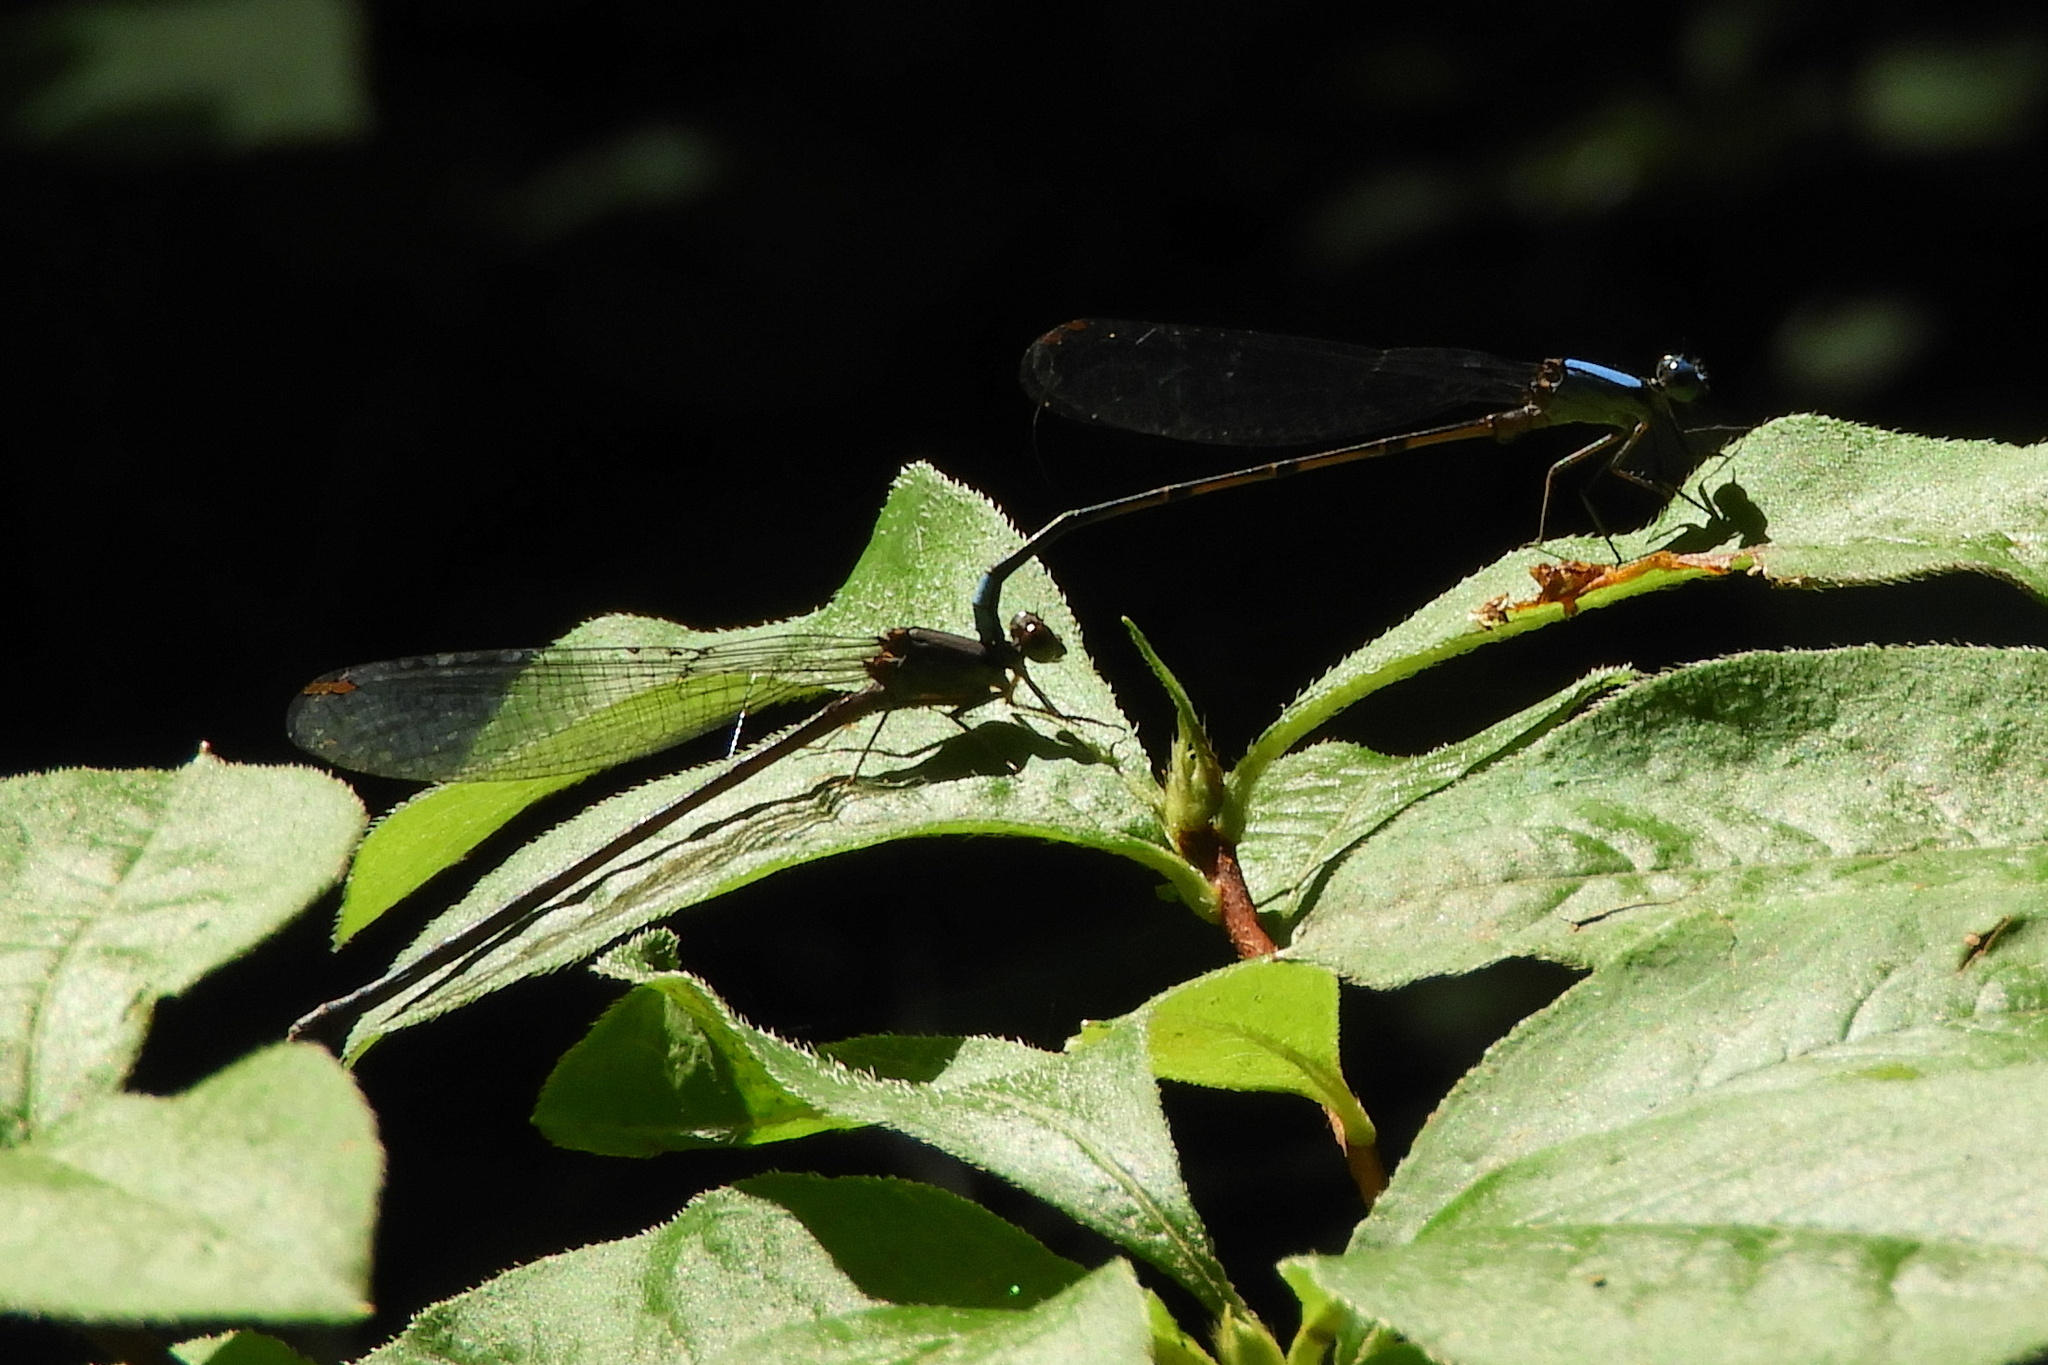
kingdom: Animalia
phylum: Arthropoda
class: Insecta
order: Odonata
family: Coenagrionidae
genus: Argia
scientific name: Argia apicalis
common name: Blue-fronted dancer
